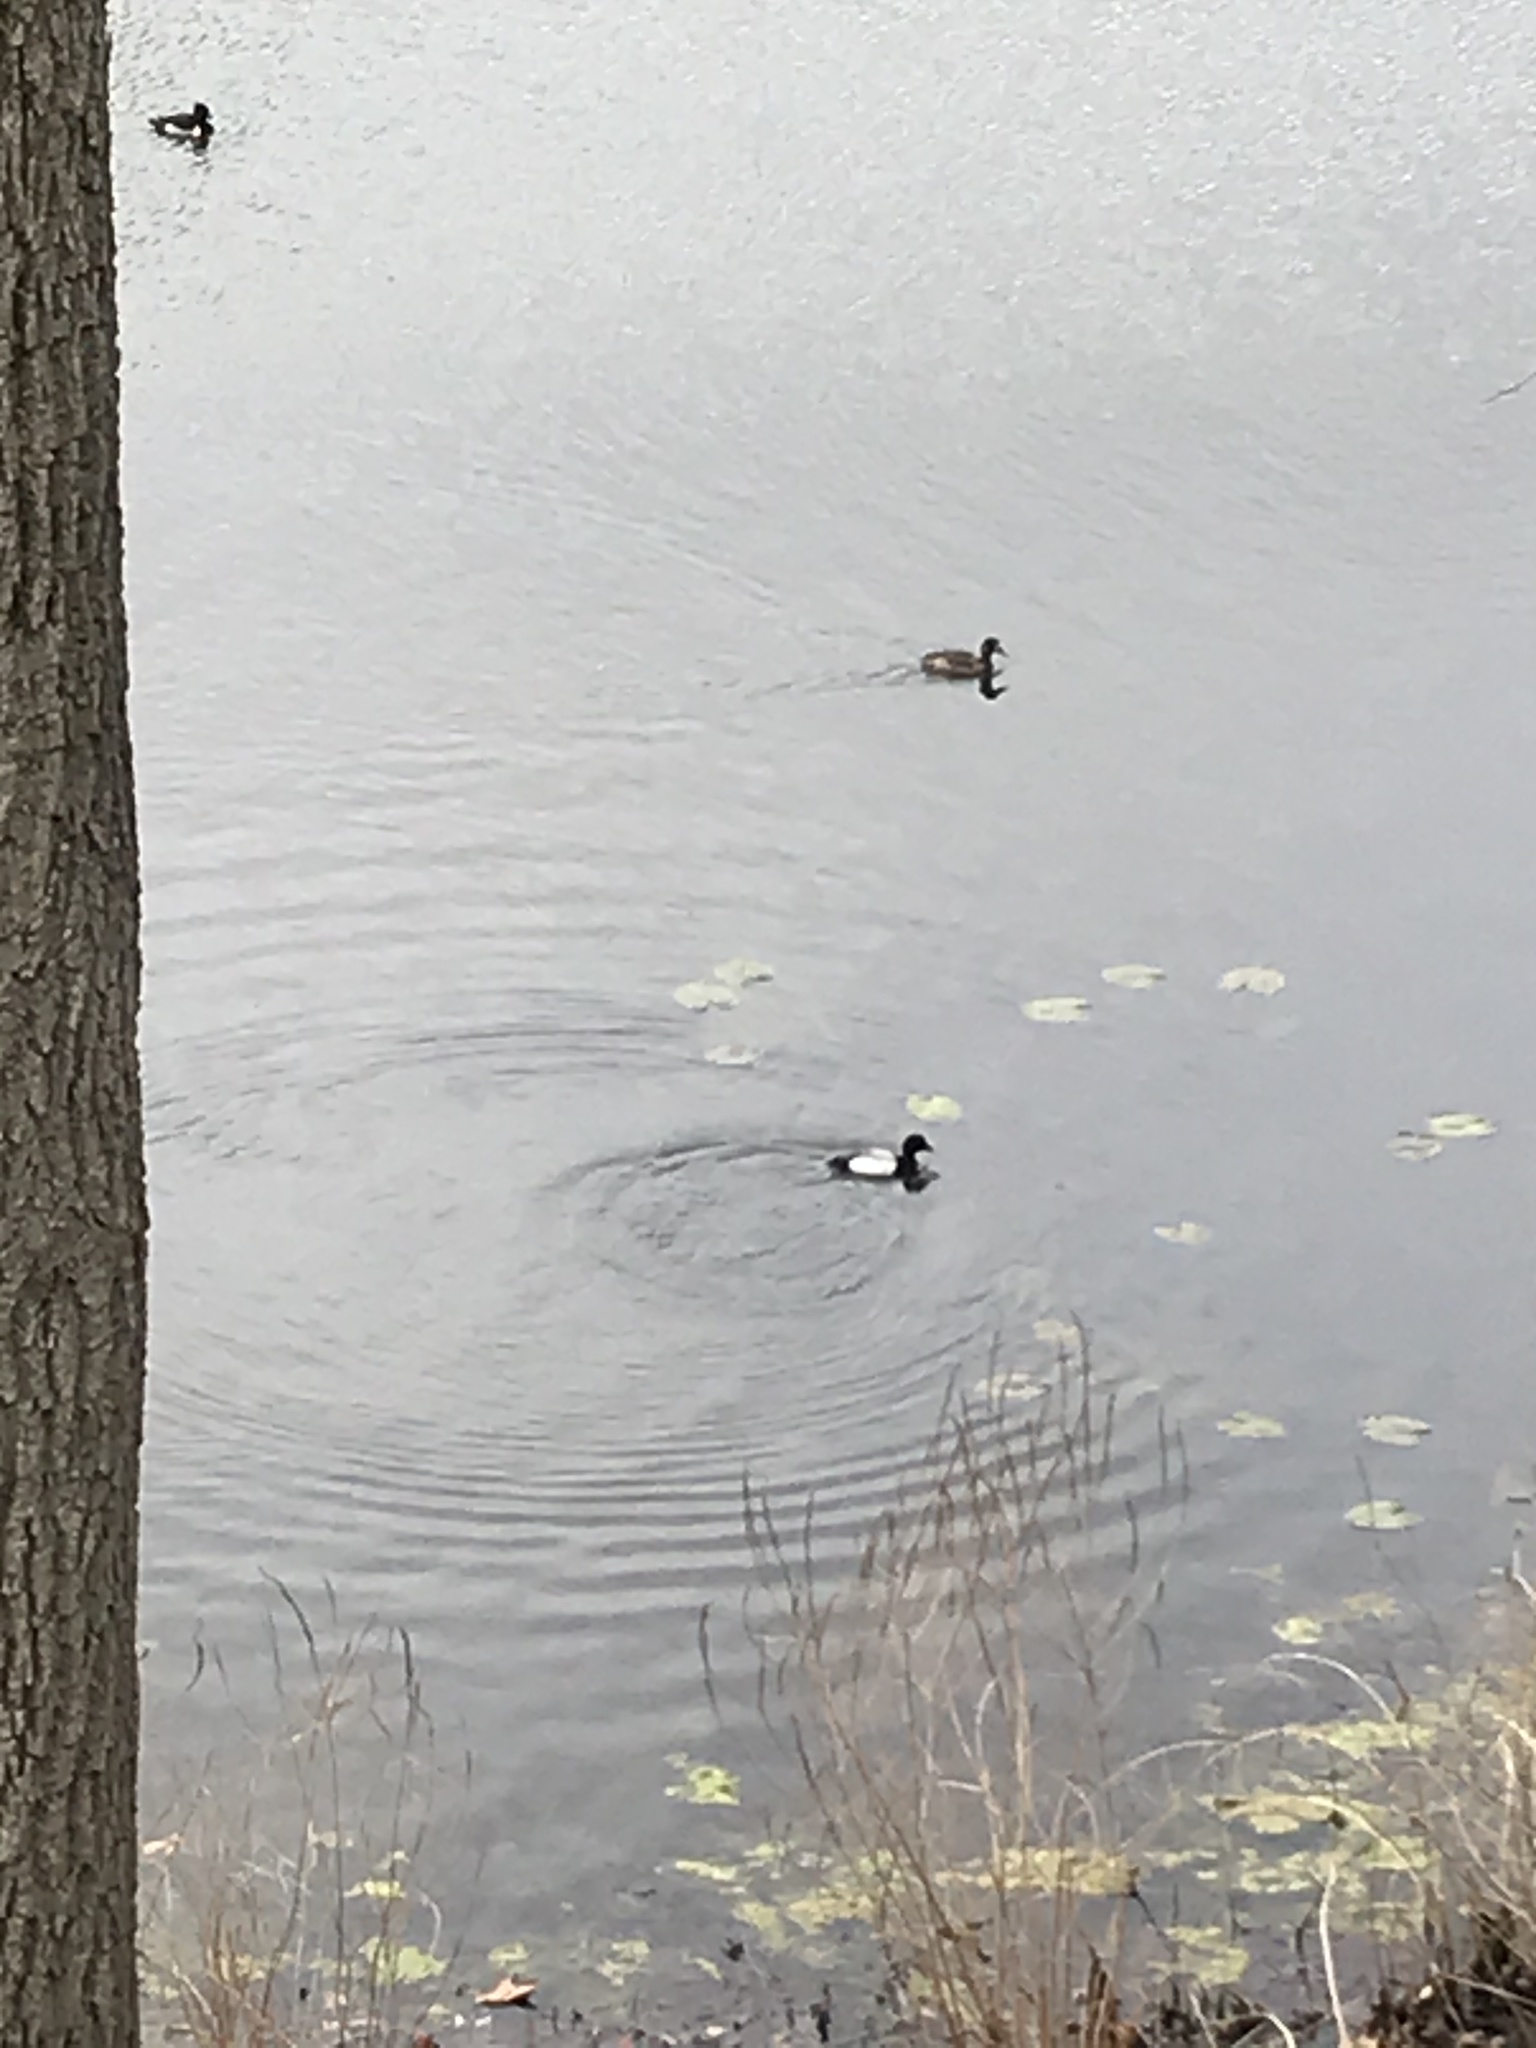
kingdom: Animalia
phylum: Chordata
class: Aves
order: Anseriformes
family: Anatidae
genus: Aythya
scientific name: Aythya affinis
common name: Lesser scaup
